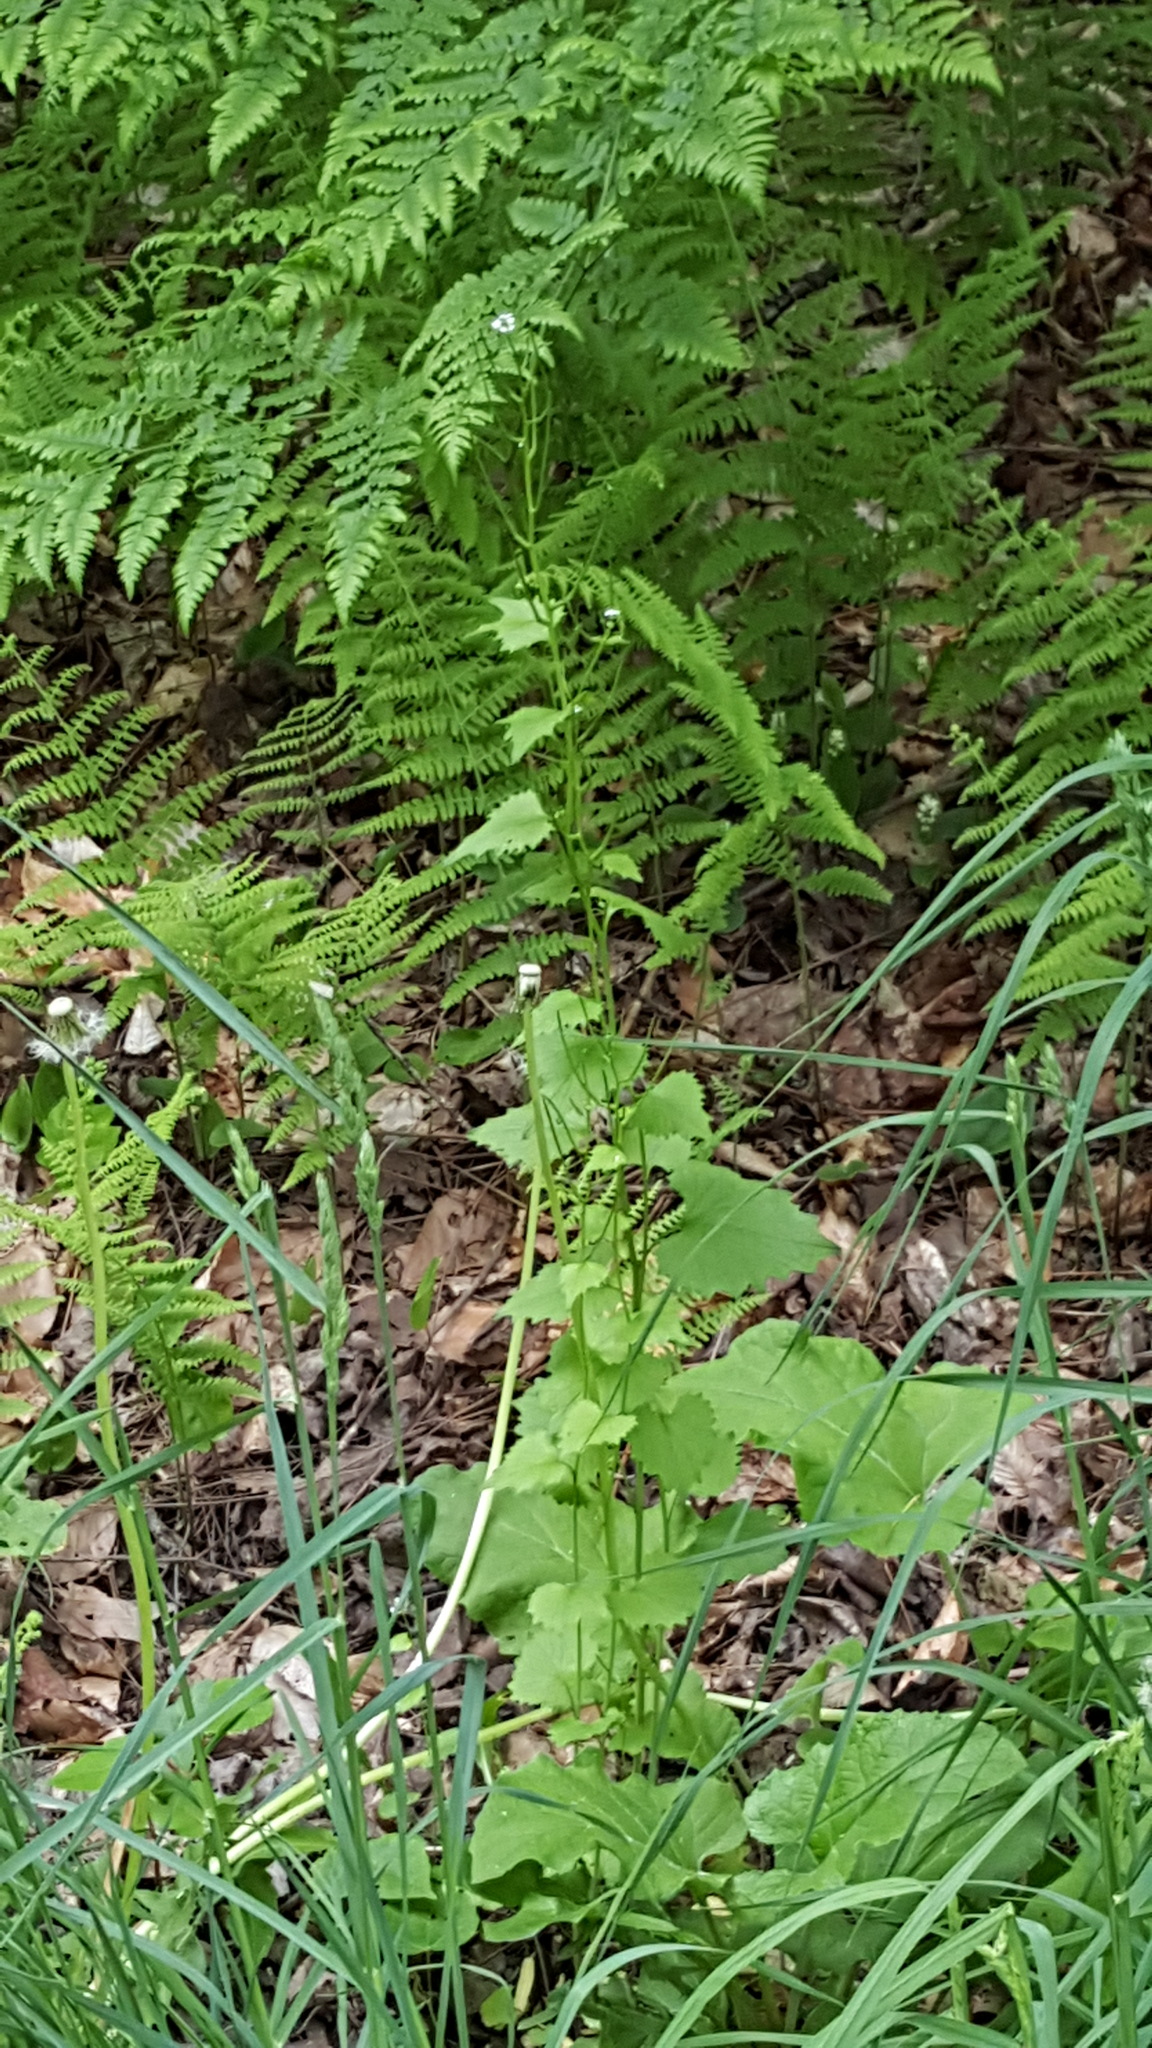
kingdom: Plantae
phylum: Tracheophyta
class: Magnoliopsida
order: Brassicales
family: Brassicaceae
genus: Alliaria
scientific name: Alliaria petiolata
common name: Garlic mustard
